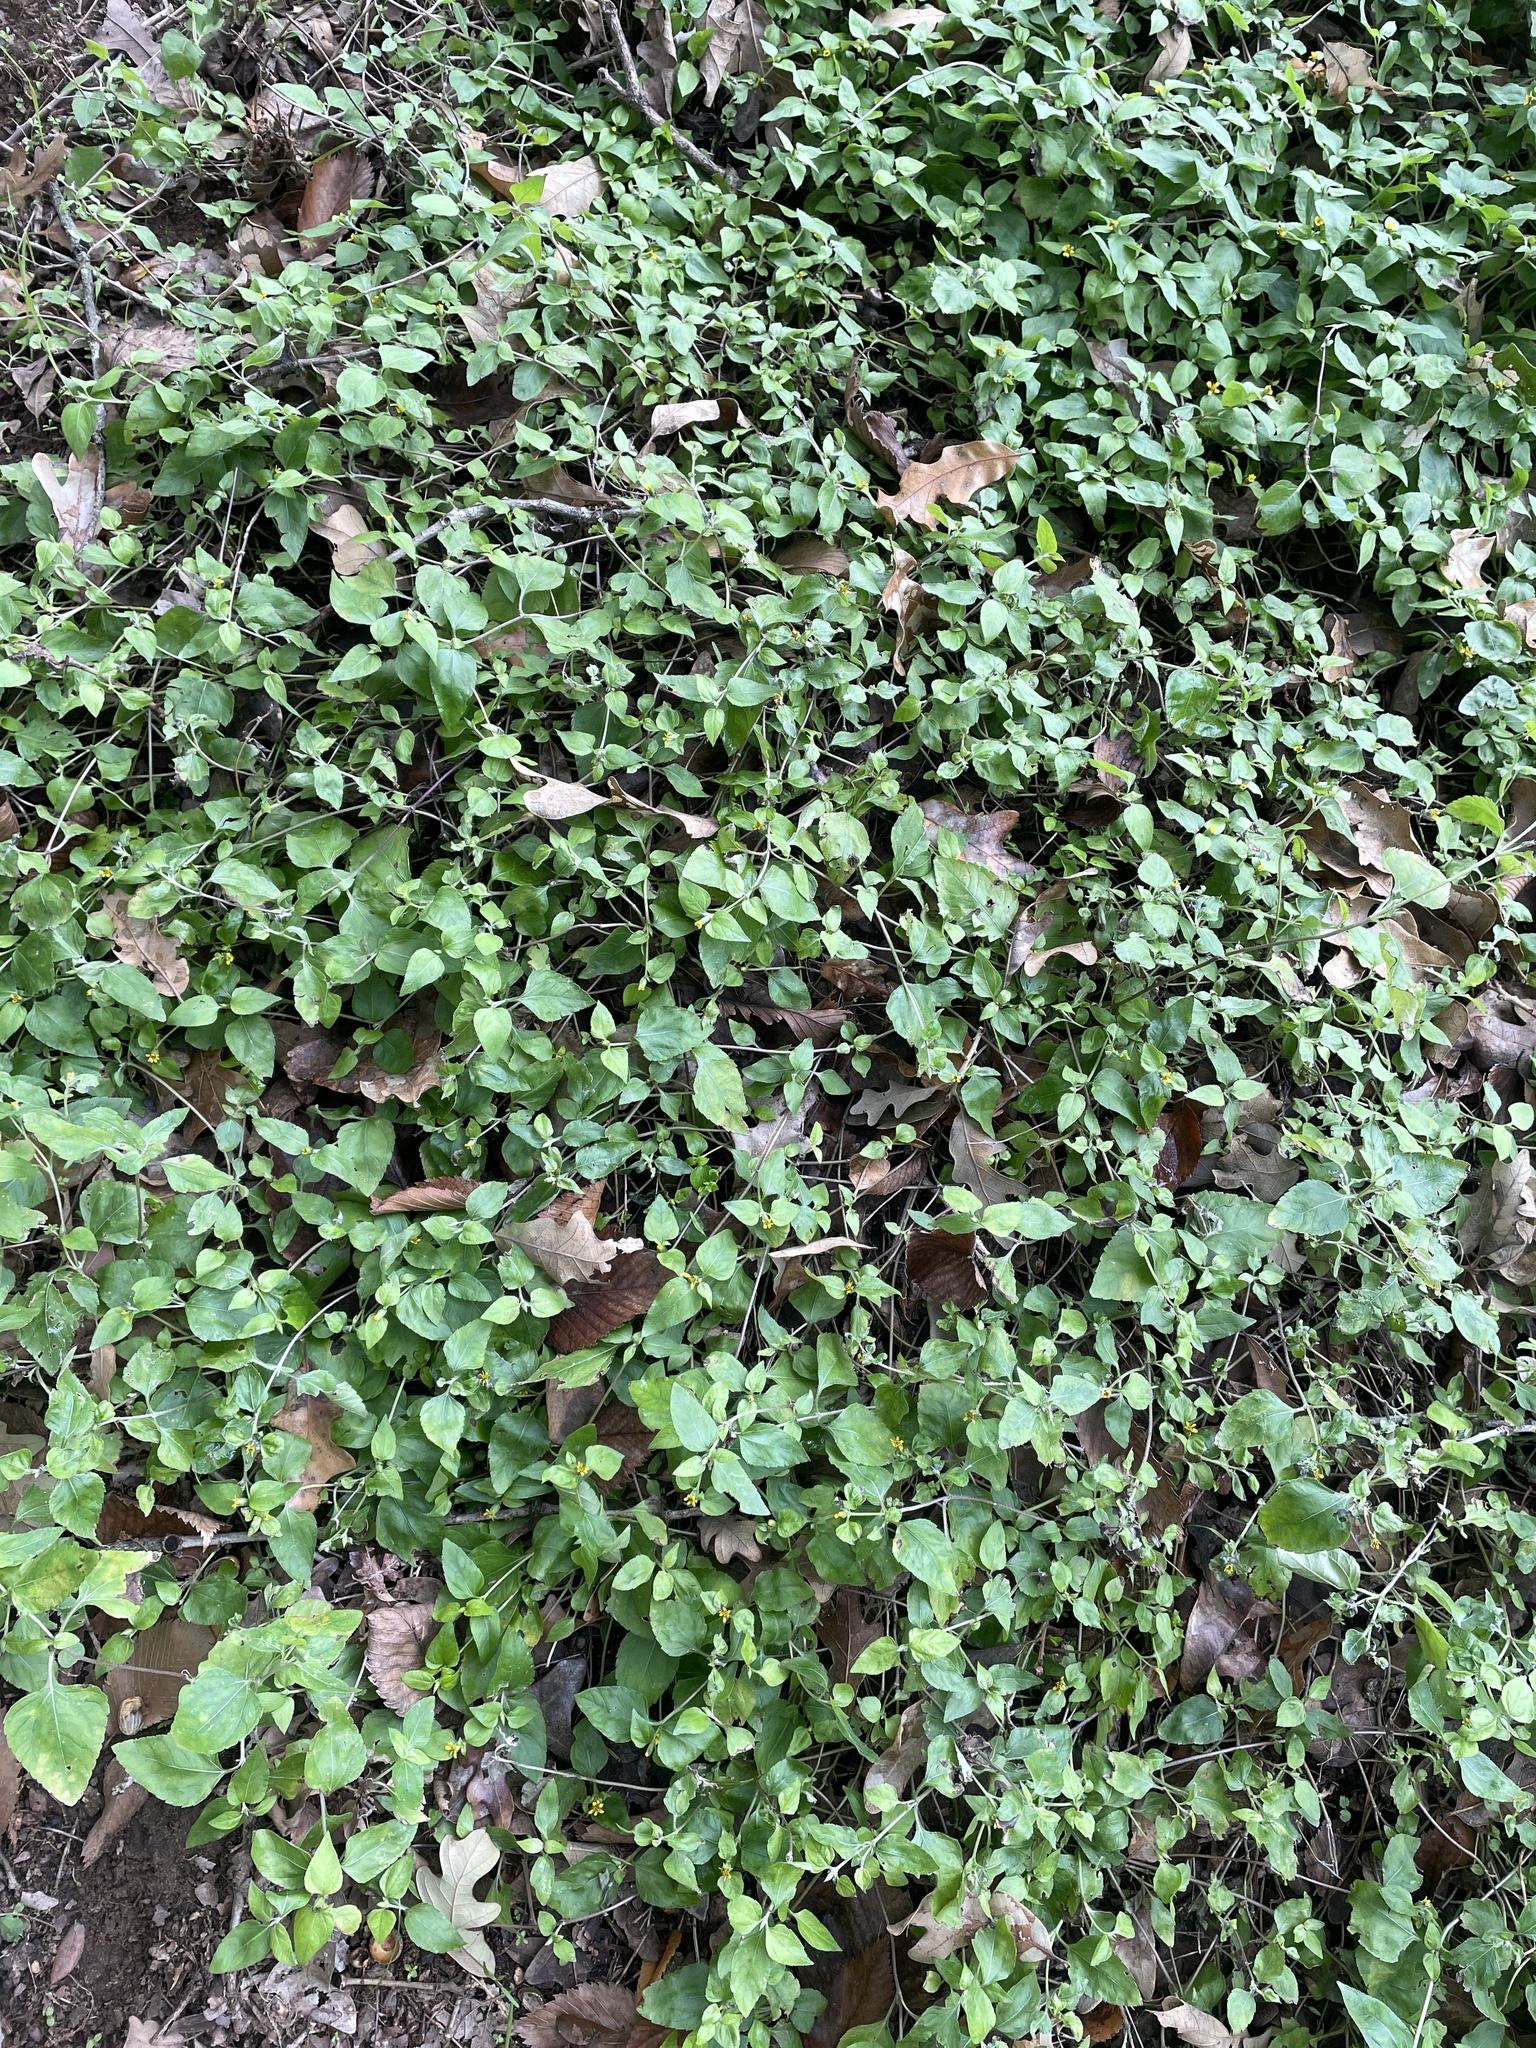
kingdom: Plantae
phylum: Tracheophyta
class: Magnoliopsida
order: Asterales
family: Asteraceae
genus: Calyptocarpus
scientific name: Calyptocarpus vialis
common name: Straggler daisy
